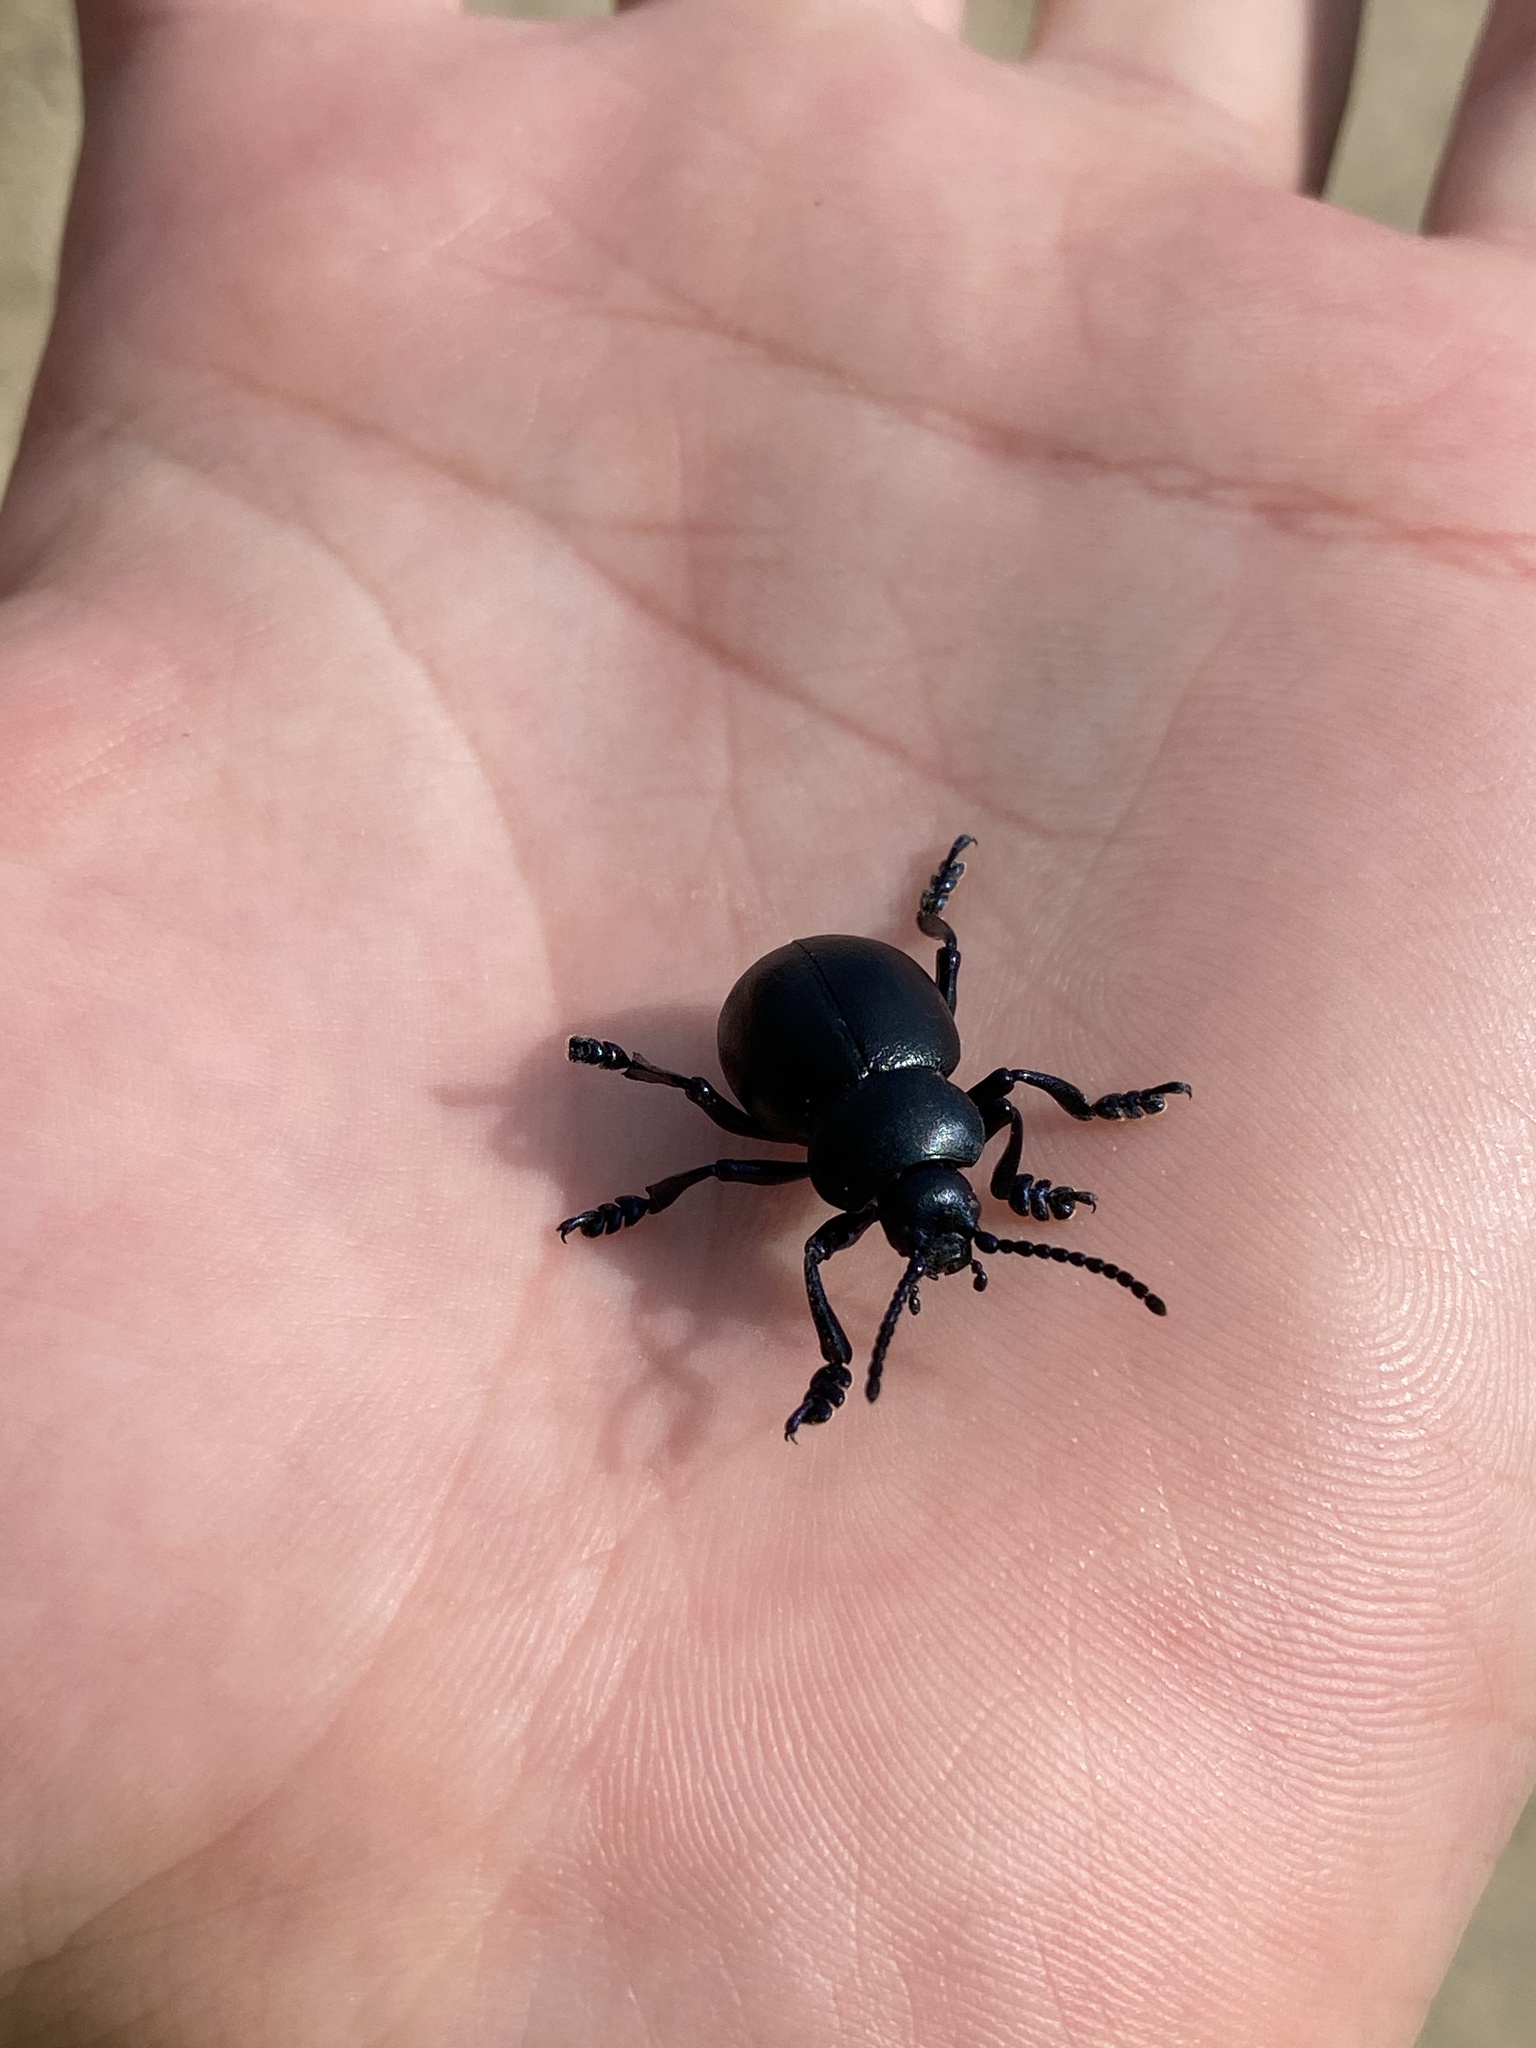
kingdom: Animalia
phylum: Arthropoda
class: Insecta
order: Coleoptera
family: Chrysomelidae
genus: Timarcha
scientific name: Timarcha tenebricosa
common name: Bloody-nosed beetle
